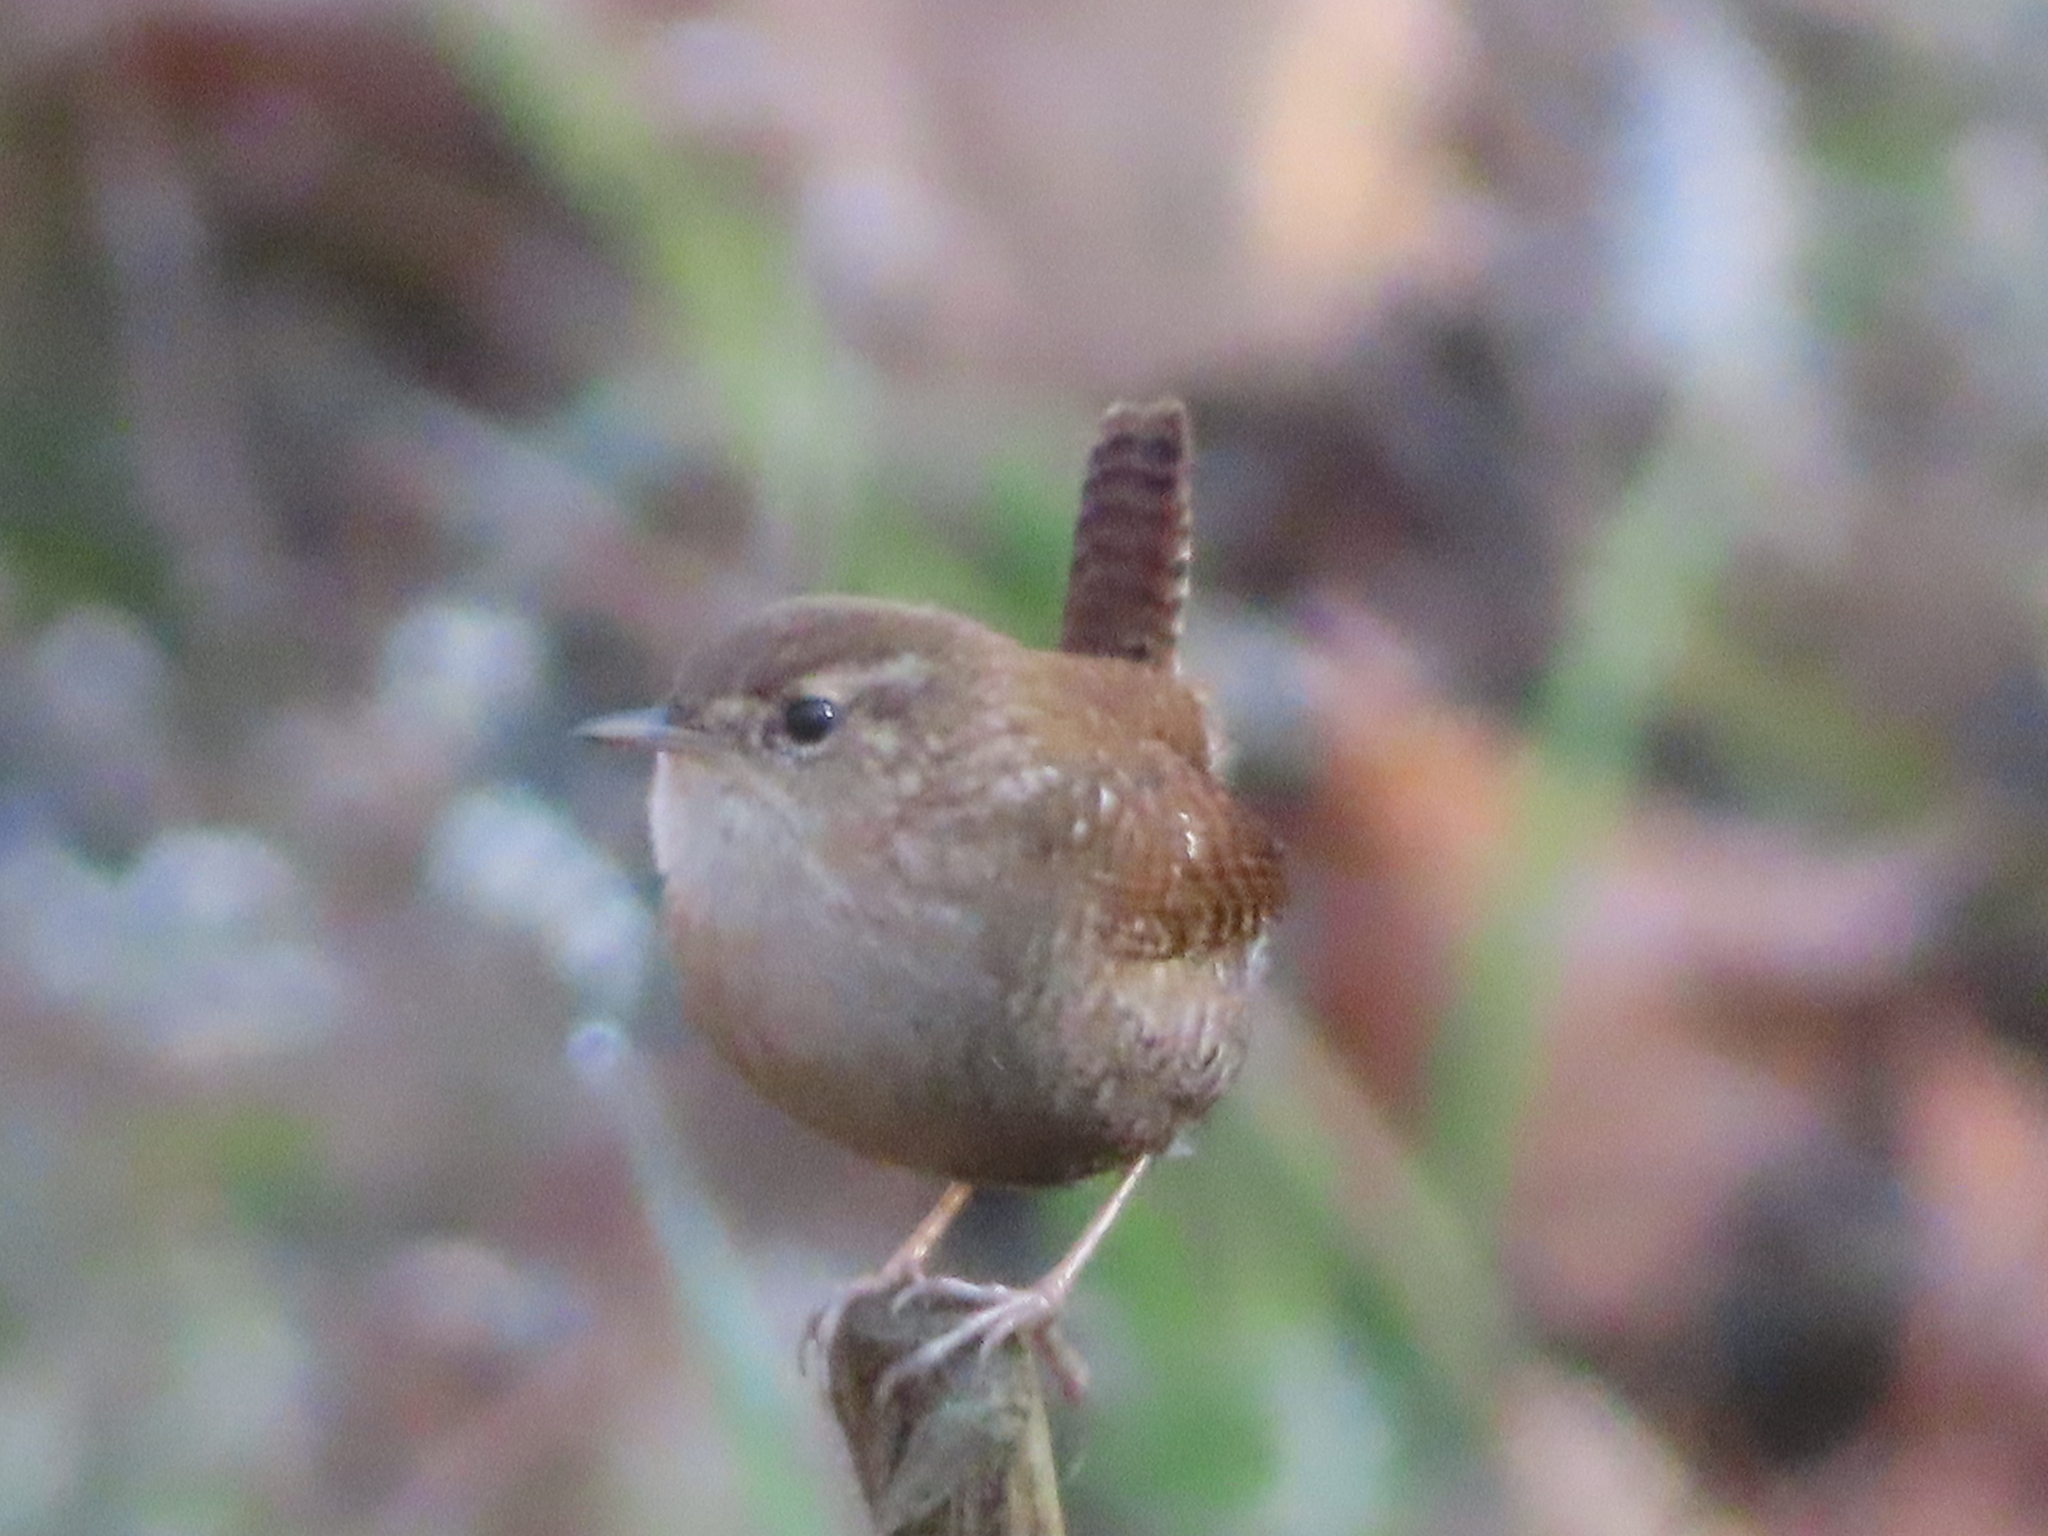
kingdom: Animalia
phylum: Chordata
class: Aves
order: Passeriformes
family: Troglodytidae
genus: Troglodytes
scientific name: Troglodytes hiemalis
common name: Winter wren
